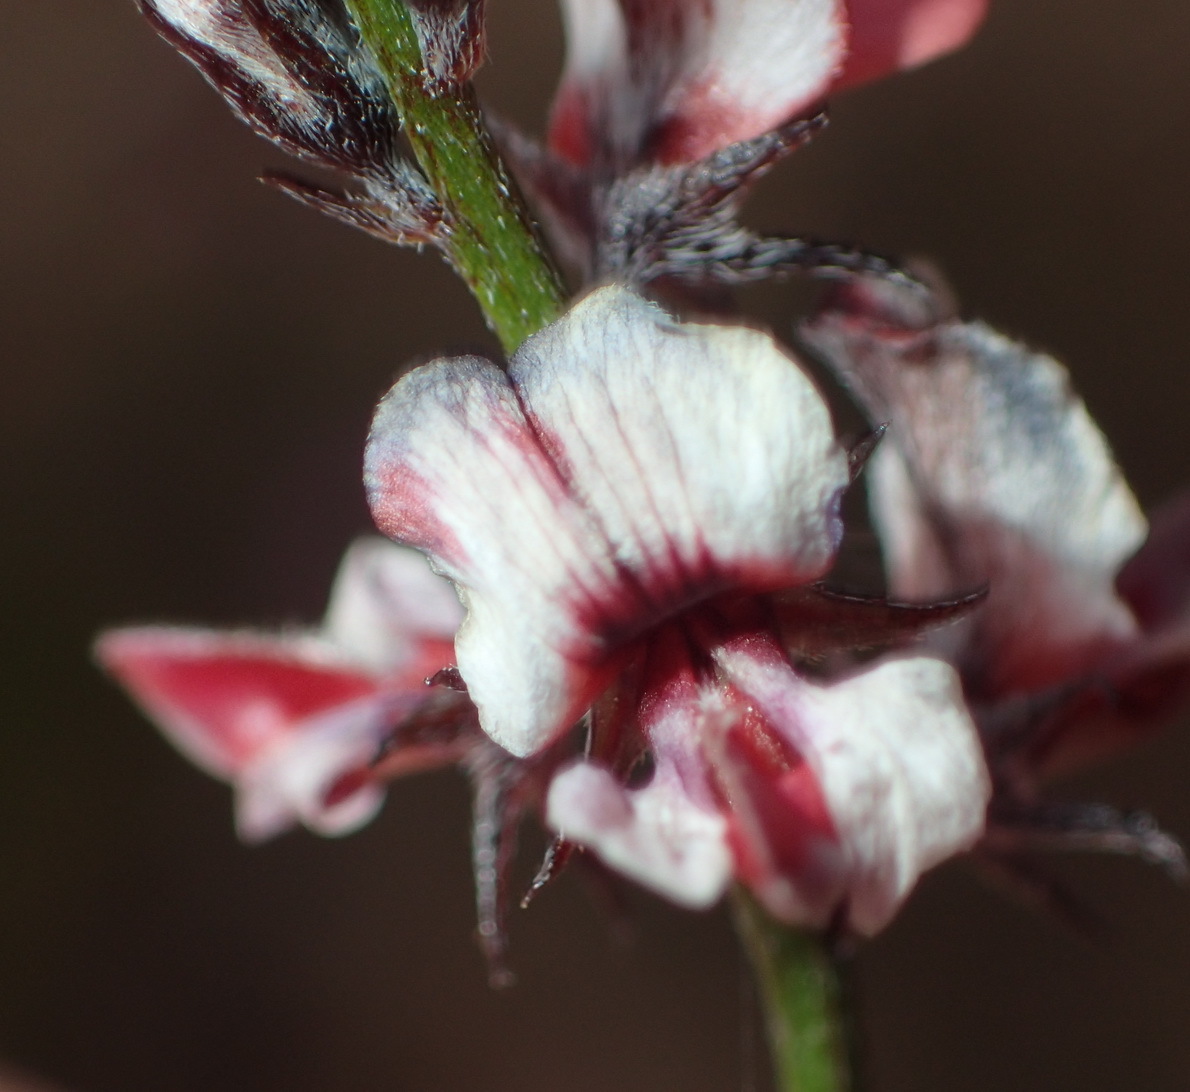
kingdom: Plantae
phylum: Tracheophyta
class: Magnoliopsida
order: Fabales
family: Fabaceae
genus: Indigofera
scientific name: Indigofera leptocarpa
